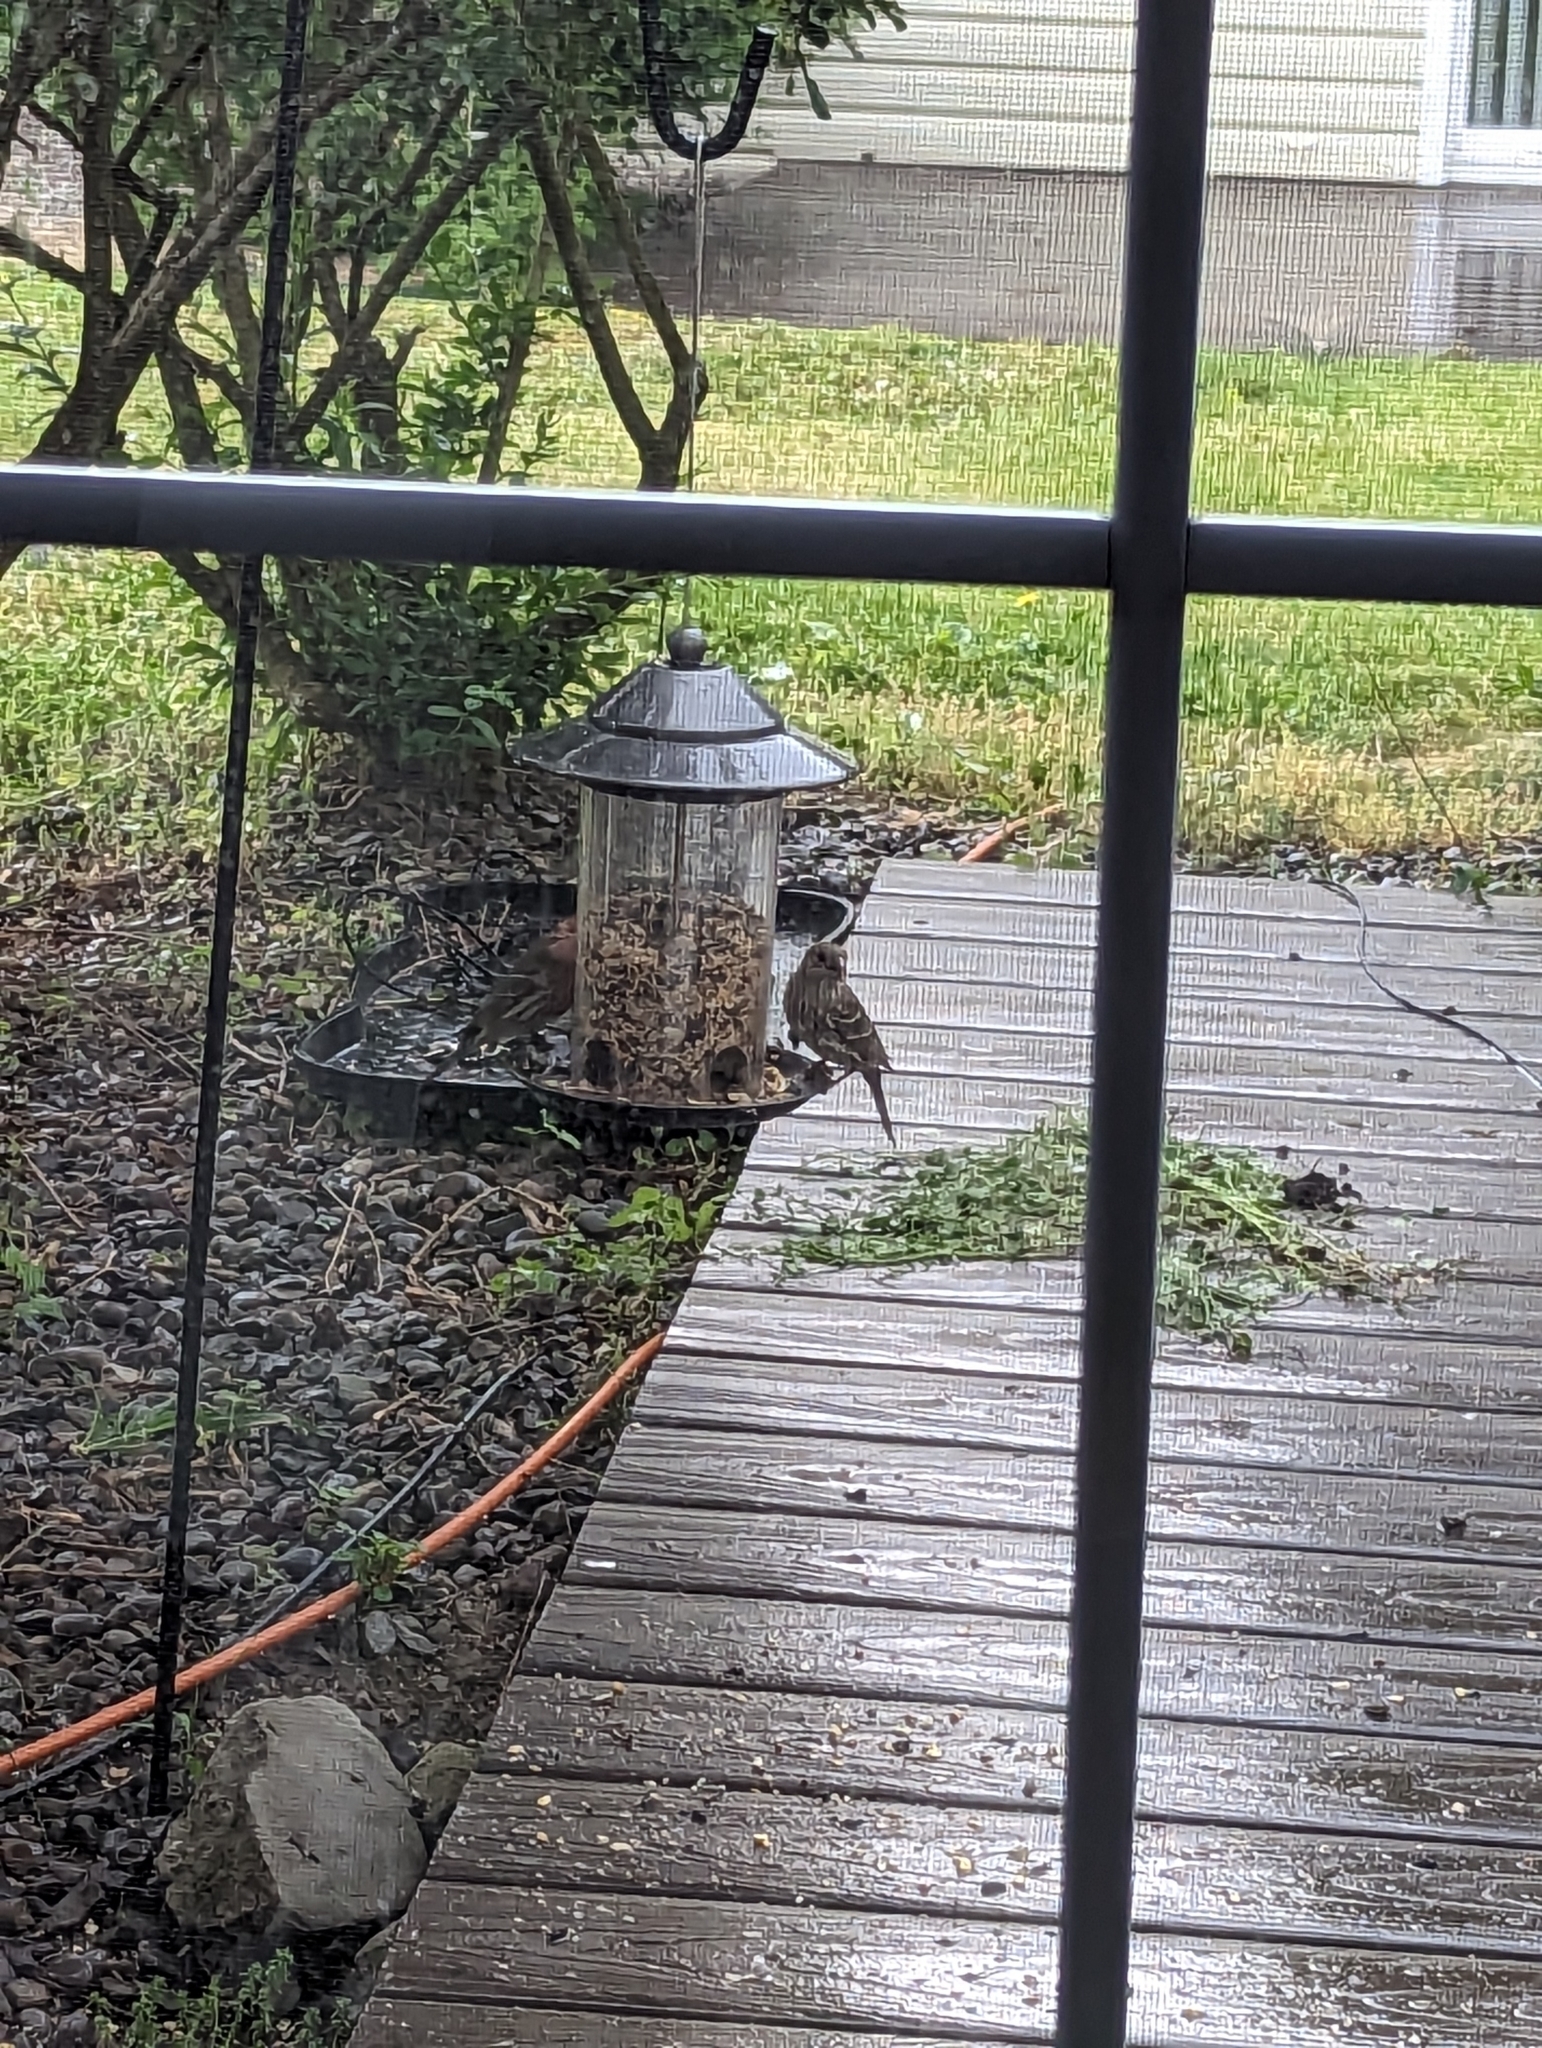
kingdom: Animalia
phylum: Chordata
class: Aves
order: Passeriformes
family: Fringillidae
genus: Haemorhous
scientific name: Haemorhous mexicanus
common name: House finch
